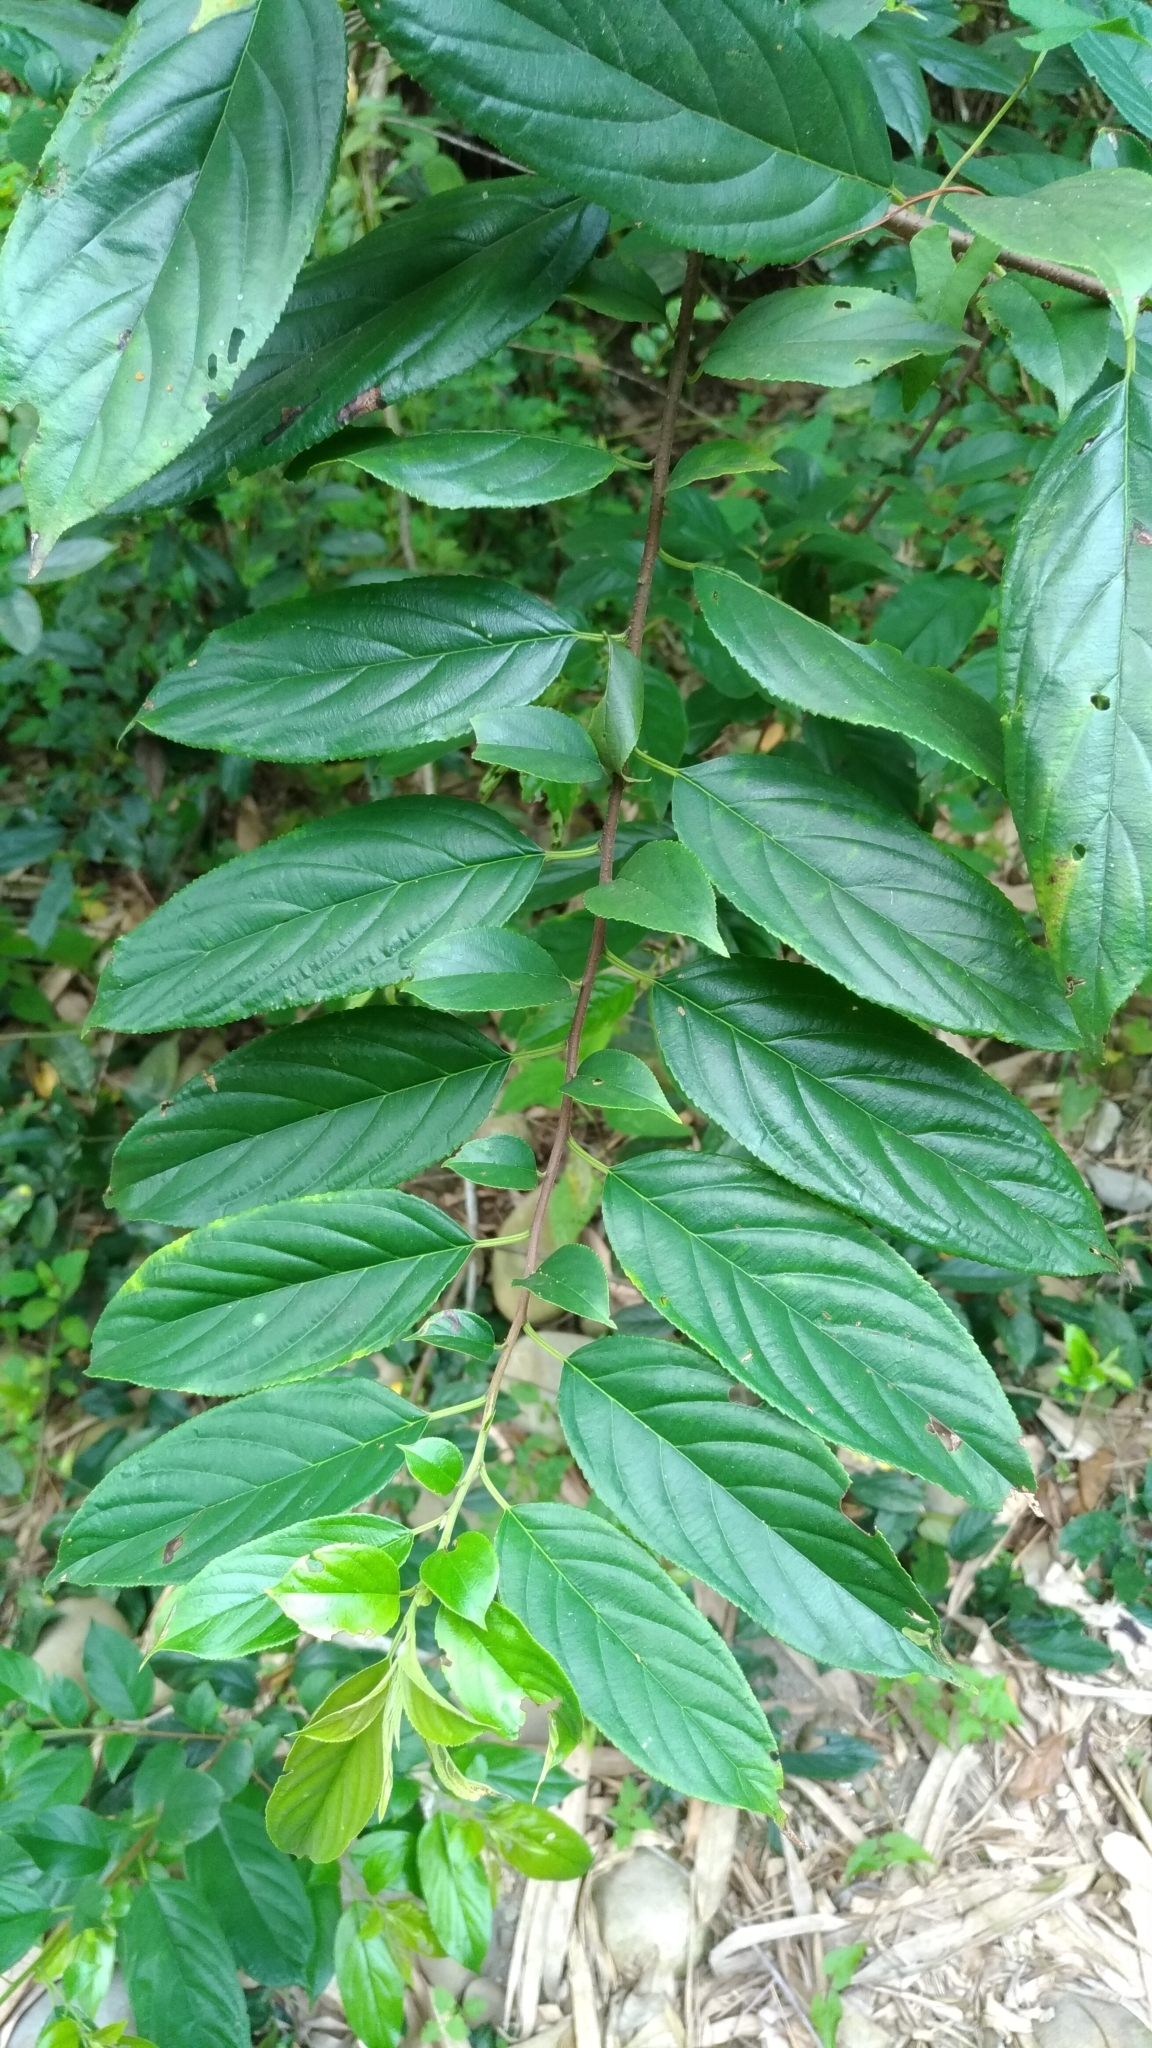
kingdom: Plantae
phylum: Tracheophyta
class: Magnoliopsida
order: Rosales
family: Rhamnaceae
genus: Rhamnus
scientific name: Rhamnus formosana
